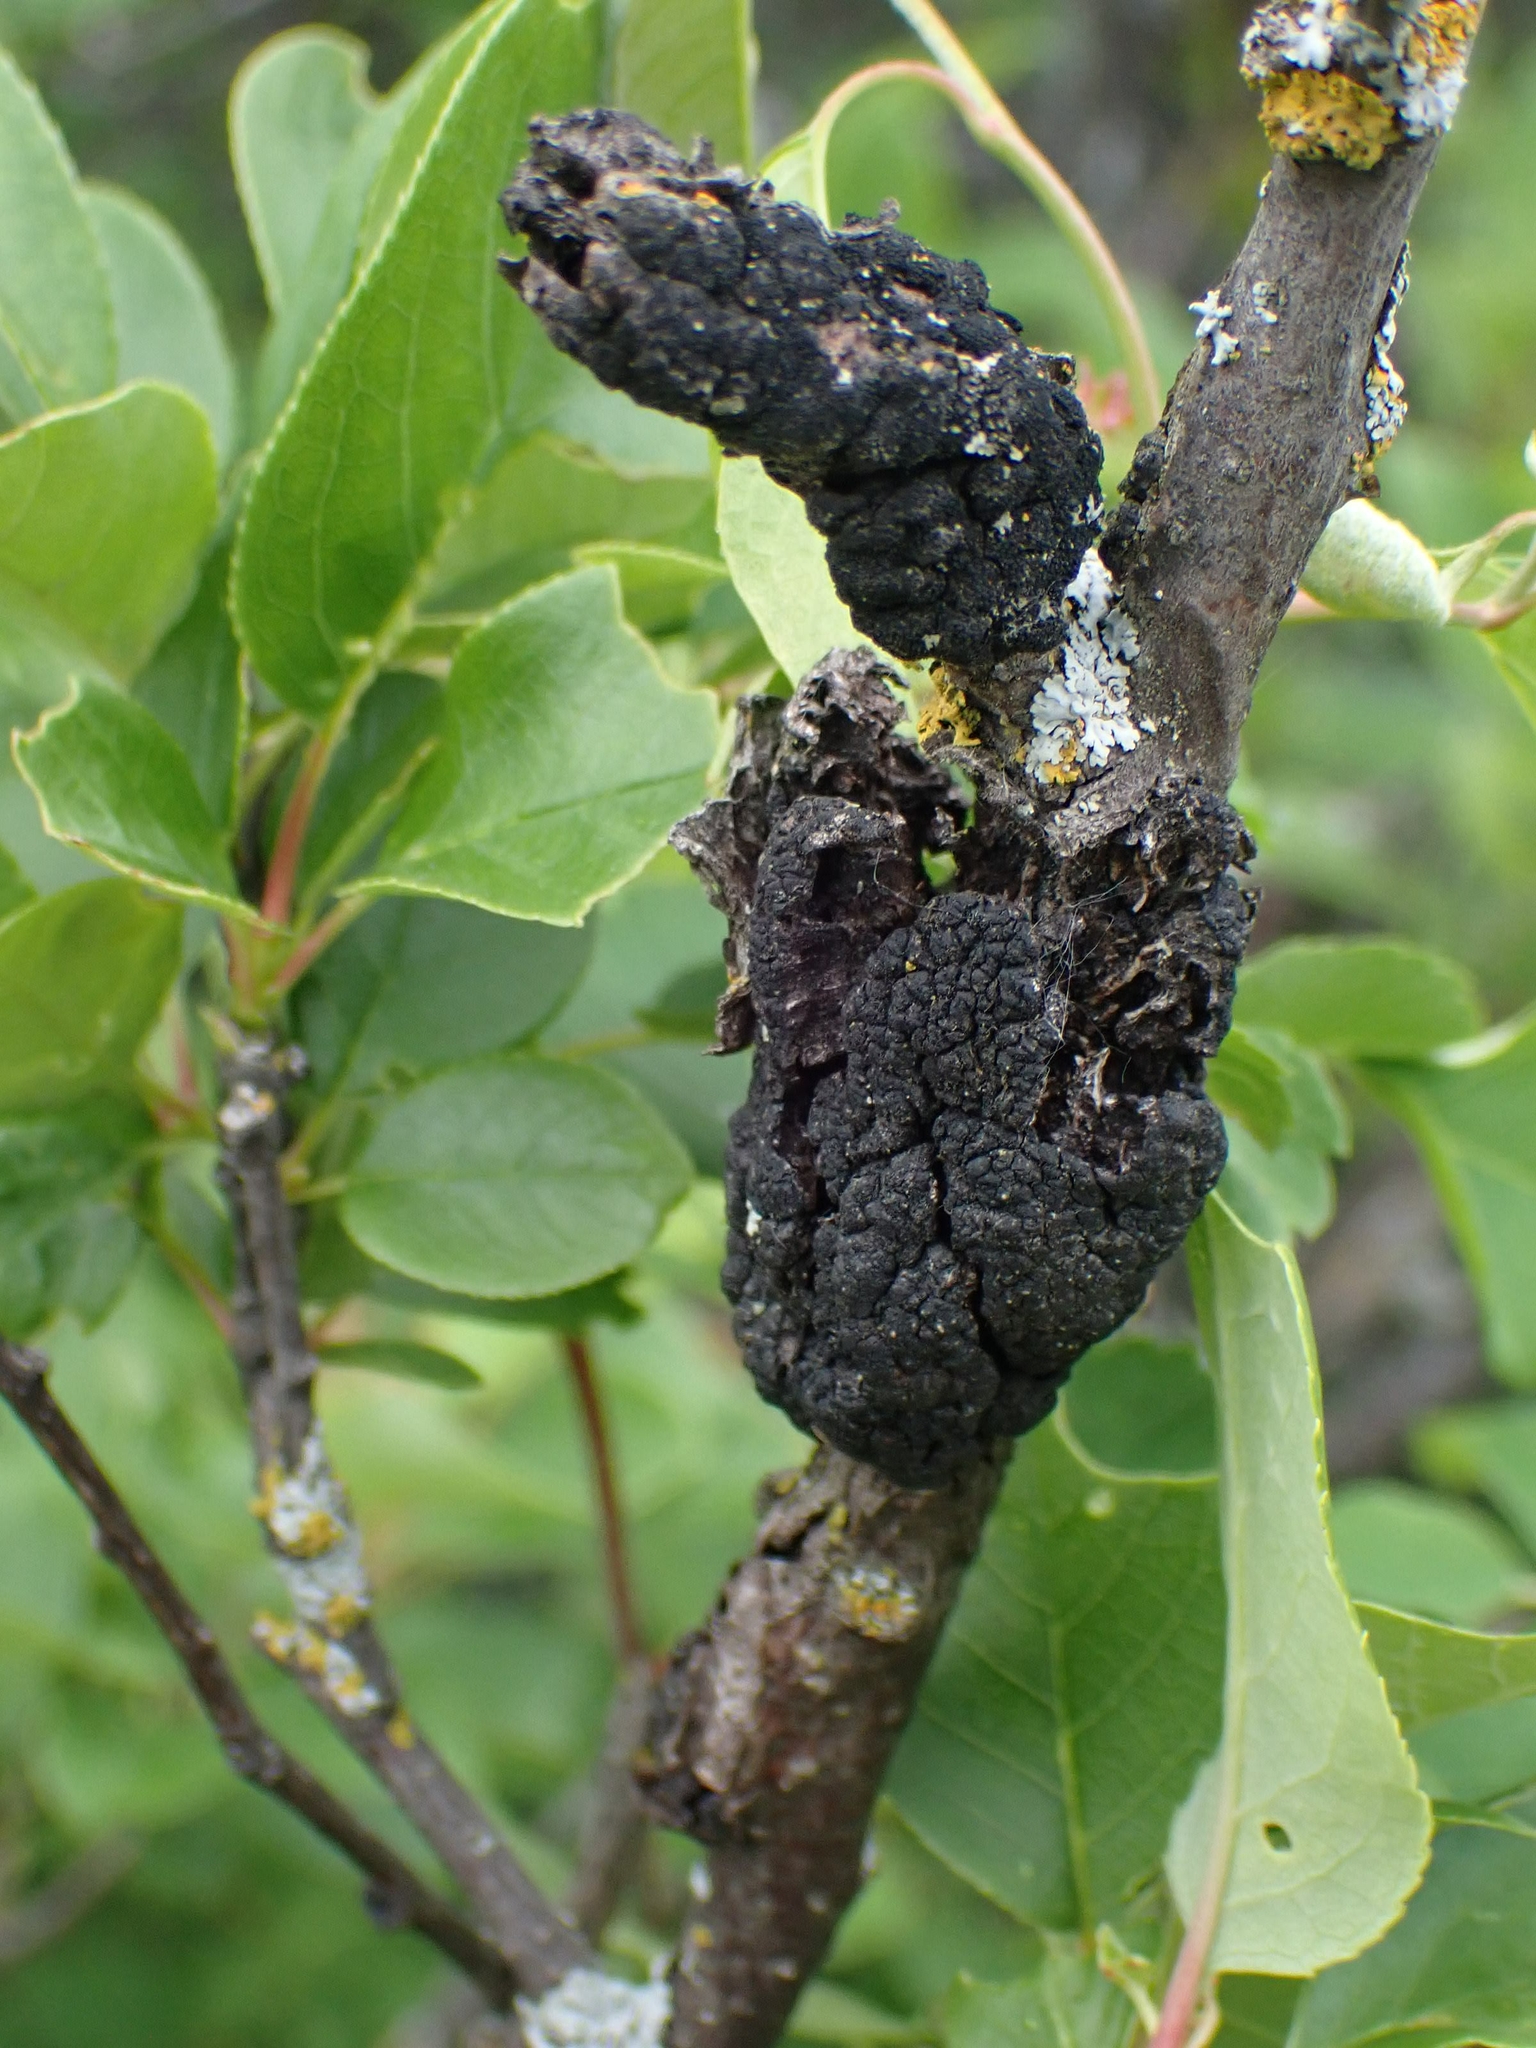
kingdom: Fungi
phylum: Ascomycota
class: Dothideomycetes
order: Venturiales
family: Venturiaceae
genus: Apiosporina
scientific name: Apiosporina morbosa
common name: Black knot
